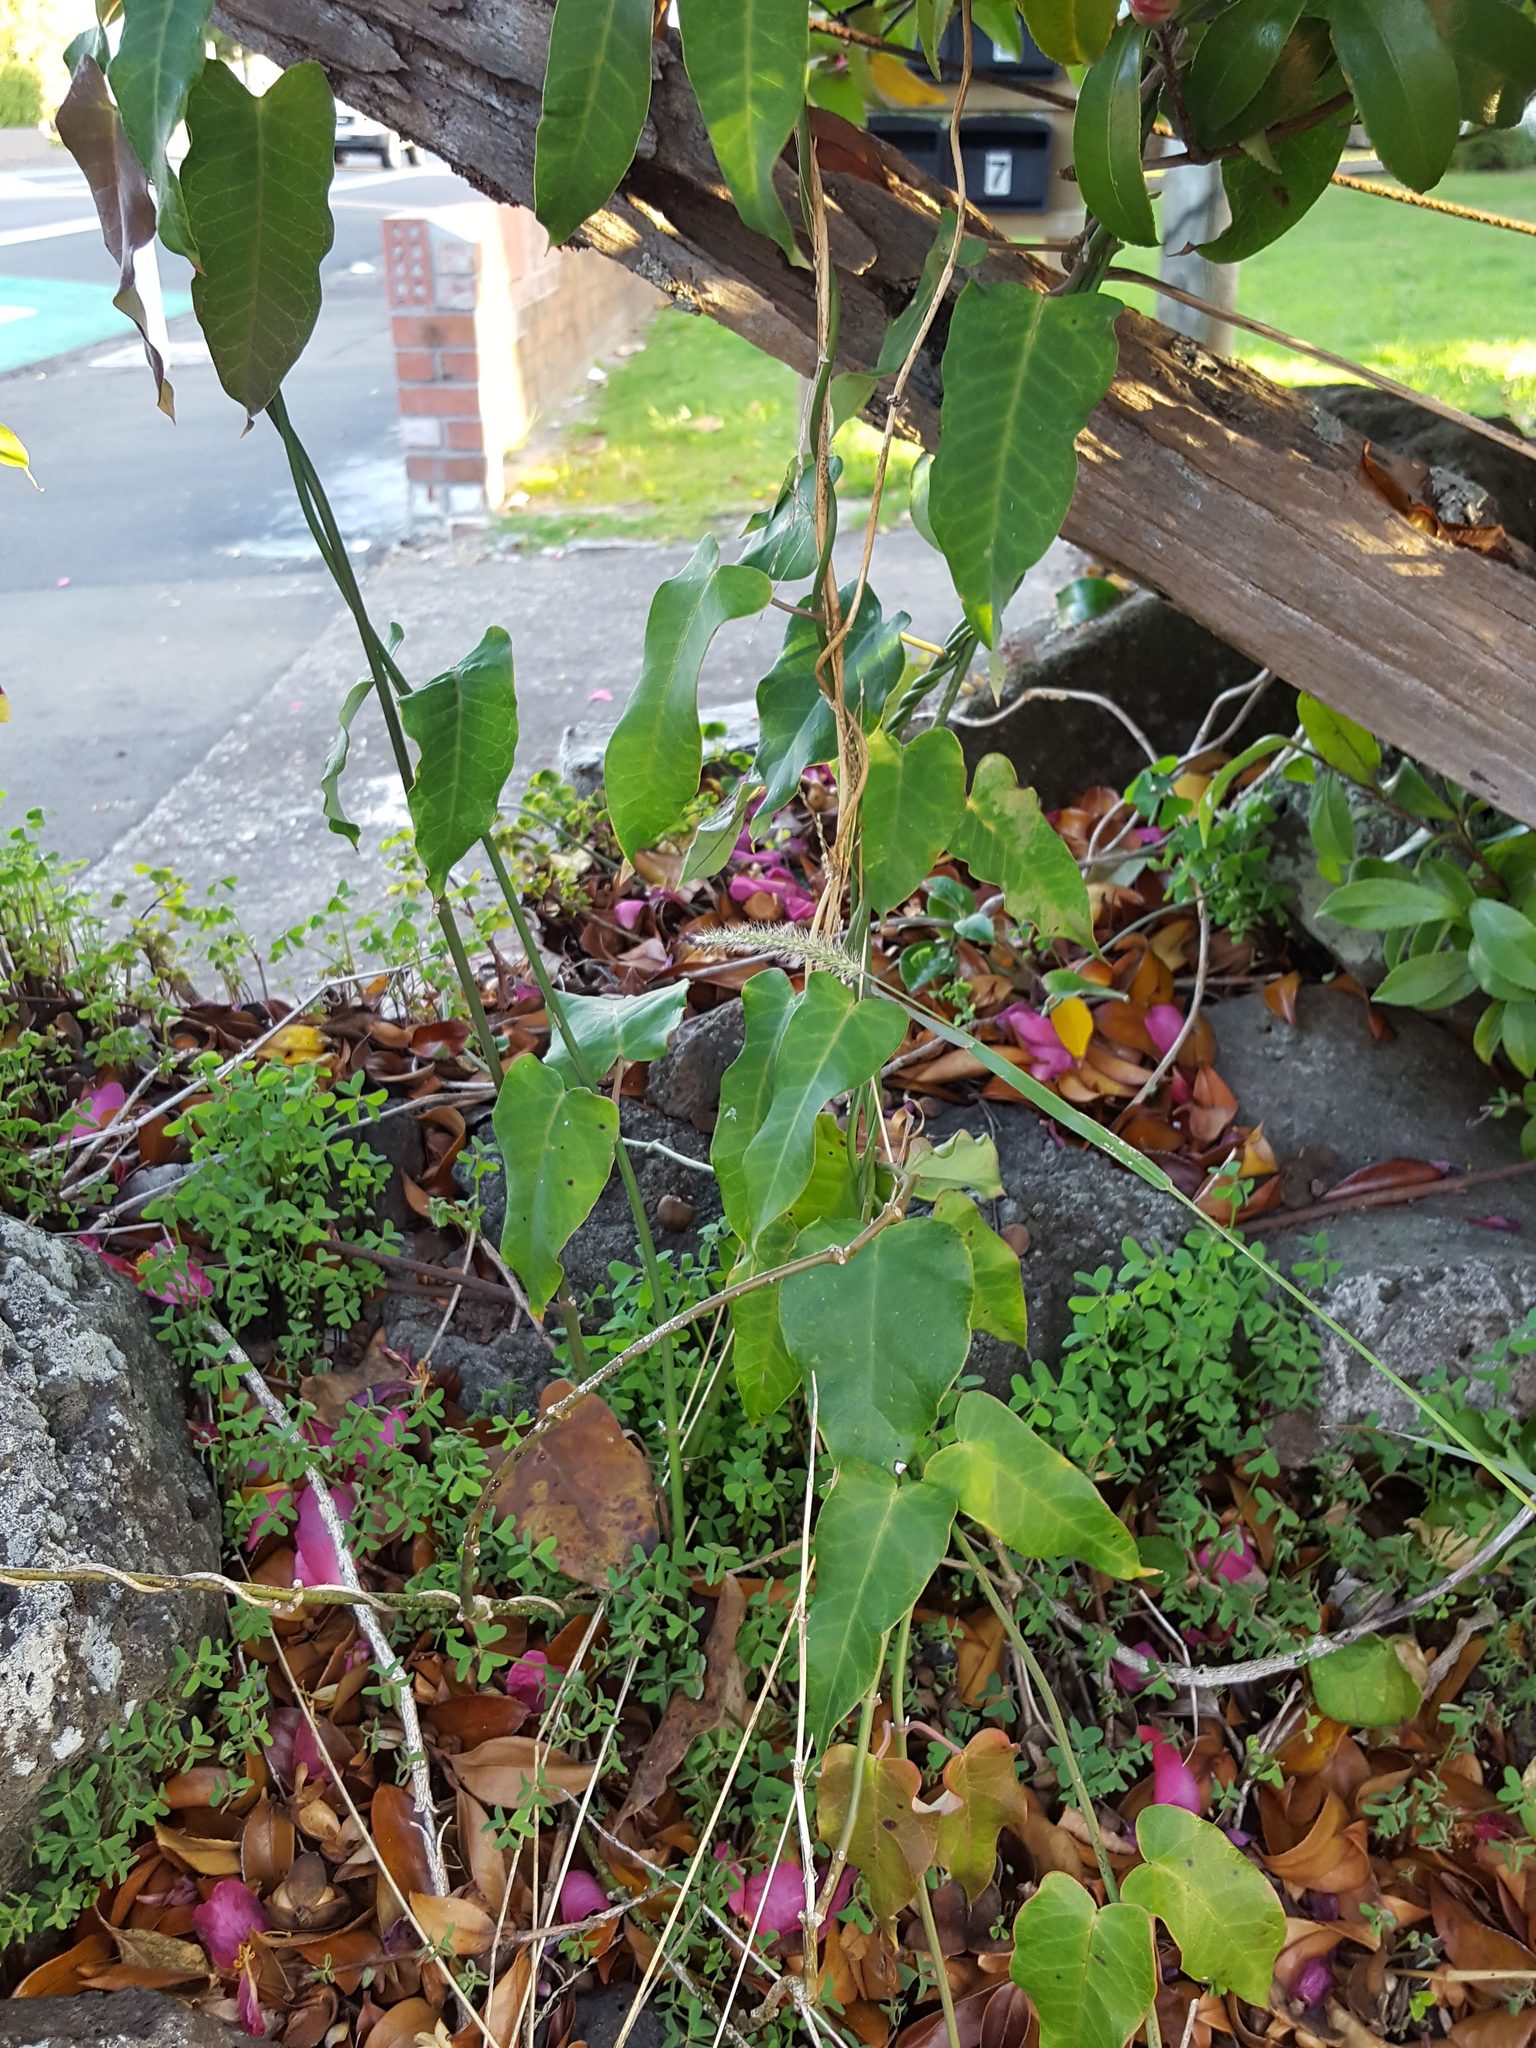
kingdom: Plantae
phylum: Tracheophyta
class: Magnoliopsida
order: Gentianales
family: Apocynaceae
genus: Araujia
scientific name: Araujia sericifera
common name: White bladderflower
